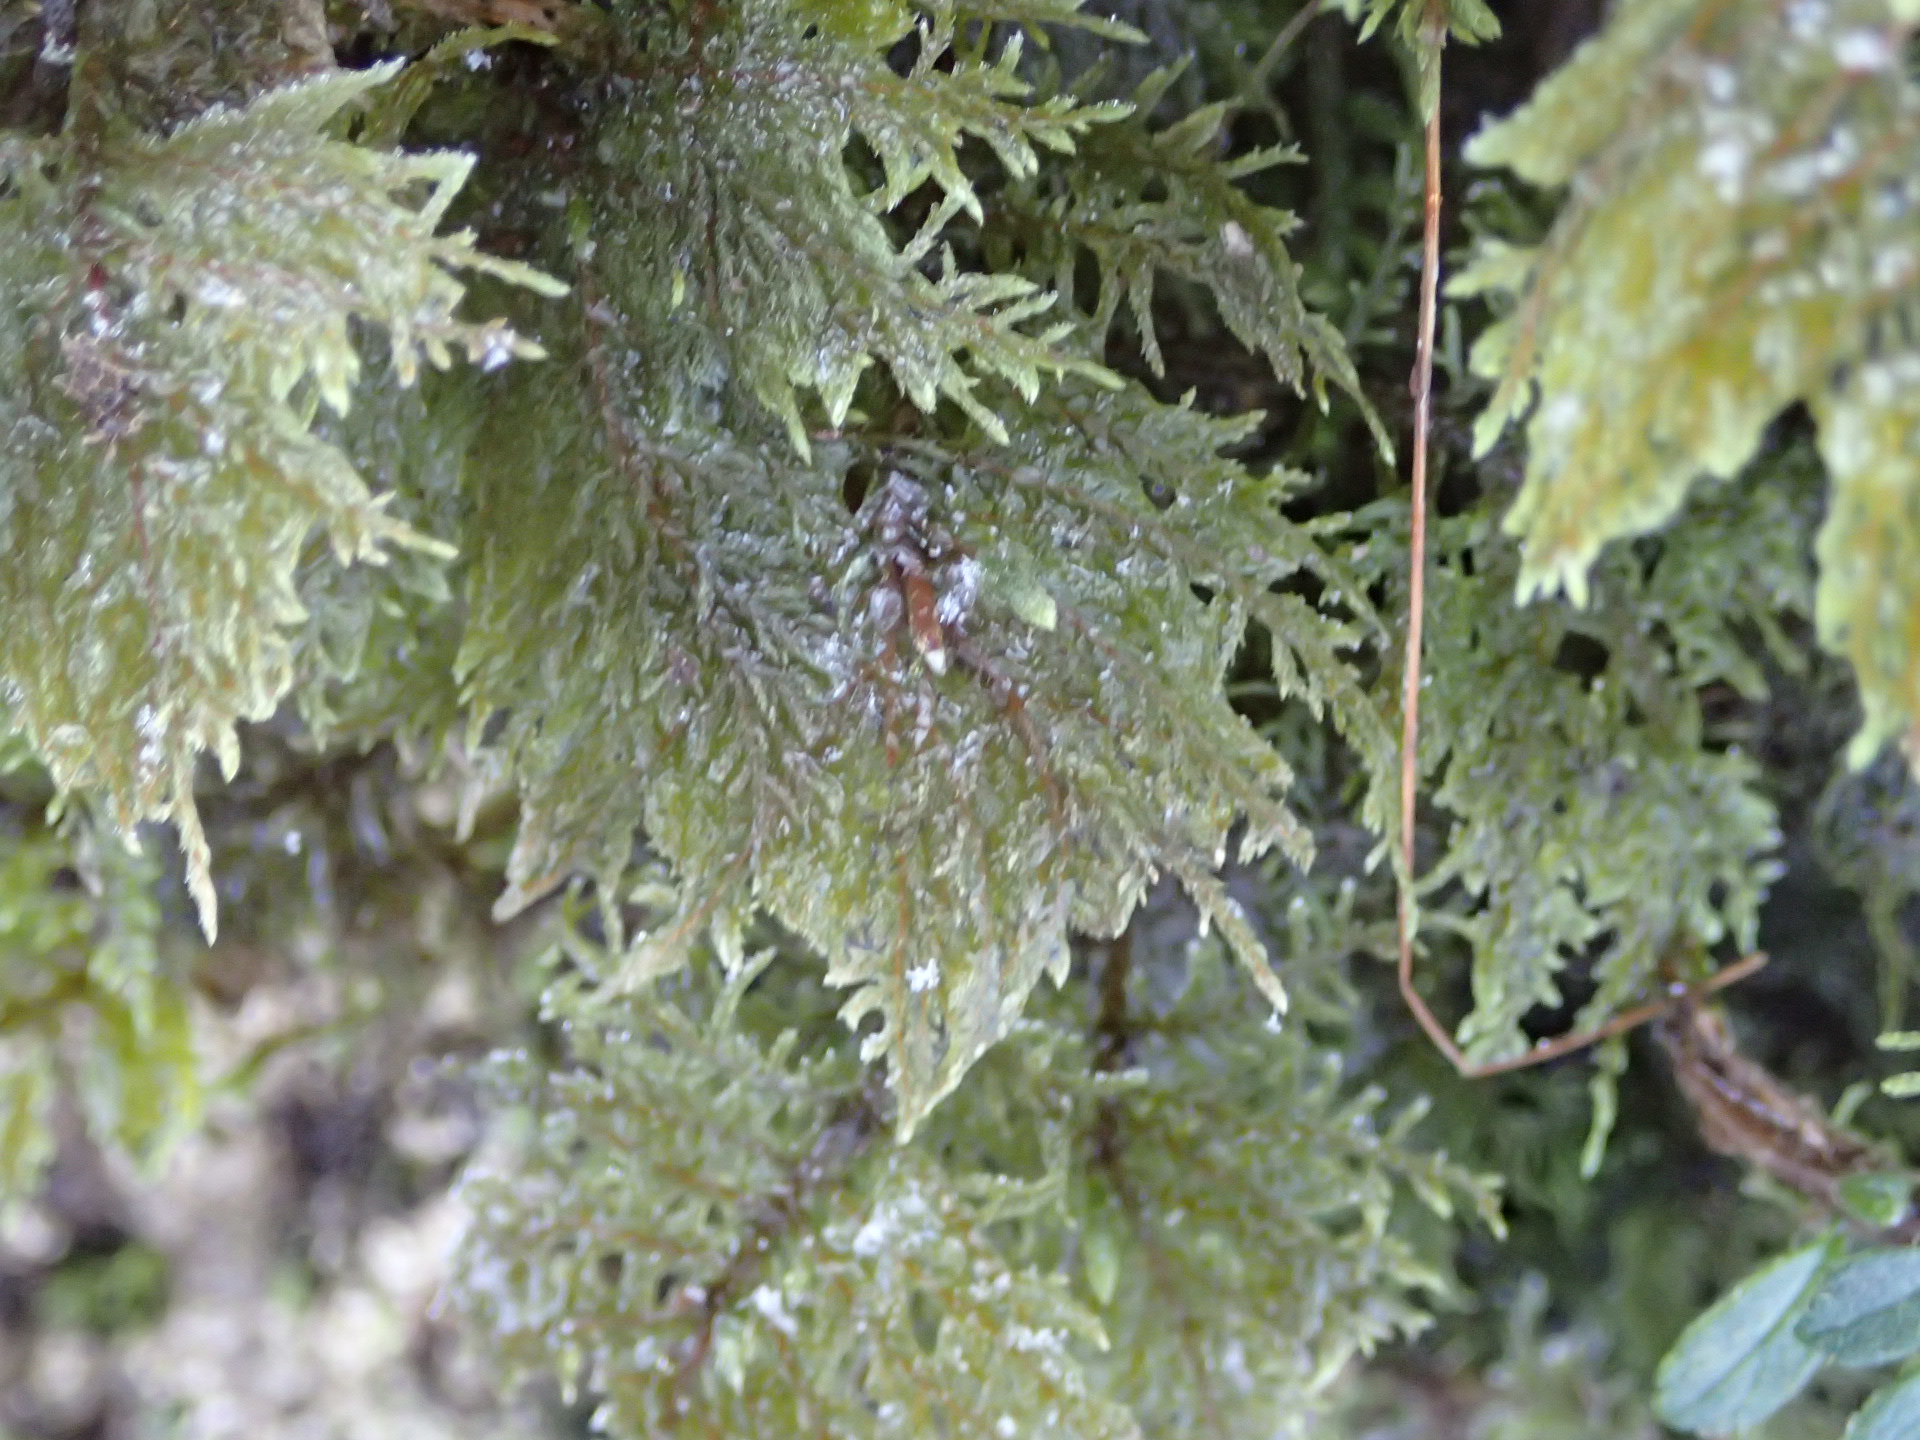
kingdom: Plantae
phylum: Bryophyta
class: Bryopsida
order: Hypnales
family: Hylocomiaceae
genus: Hylocomium
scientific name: Hylocomium splendens
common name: Stairstep moss
